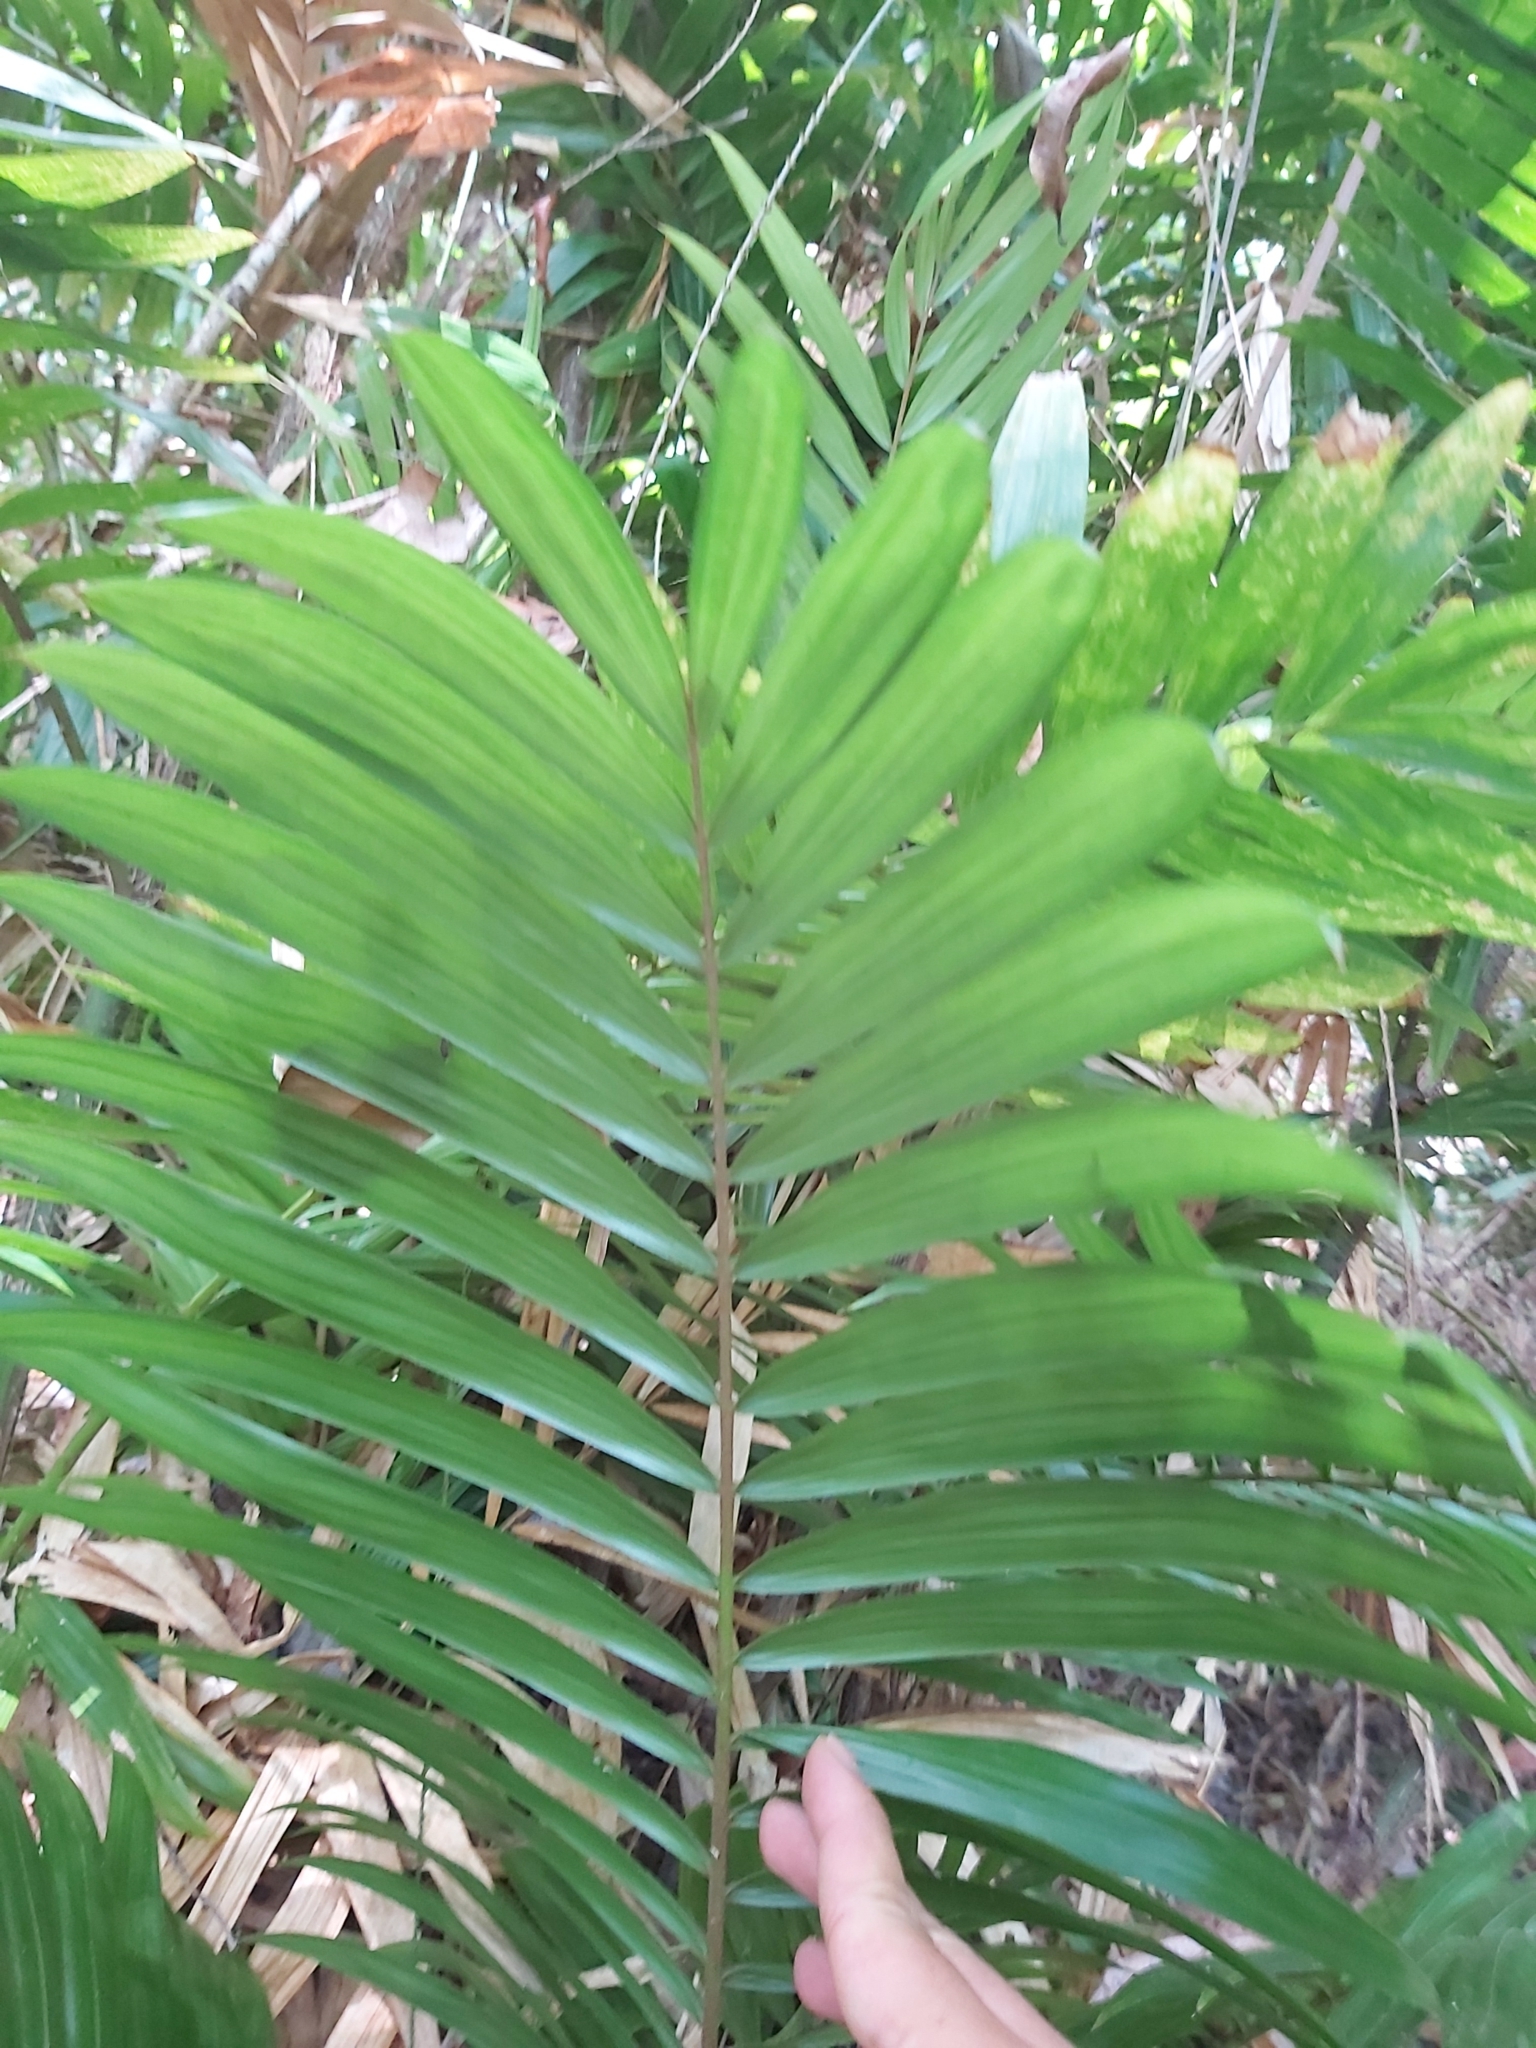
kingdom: Plantae
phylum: Tracheophyta
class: Liliopsida
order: Arecales
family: Arecaceae
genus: Calamus
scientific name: Calamus australis
